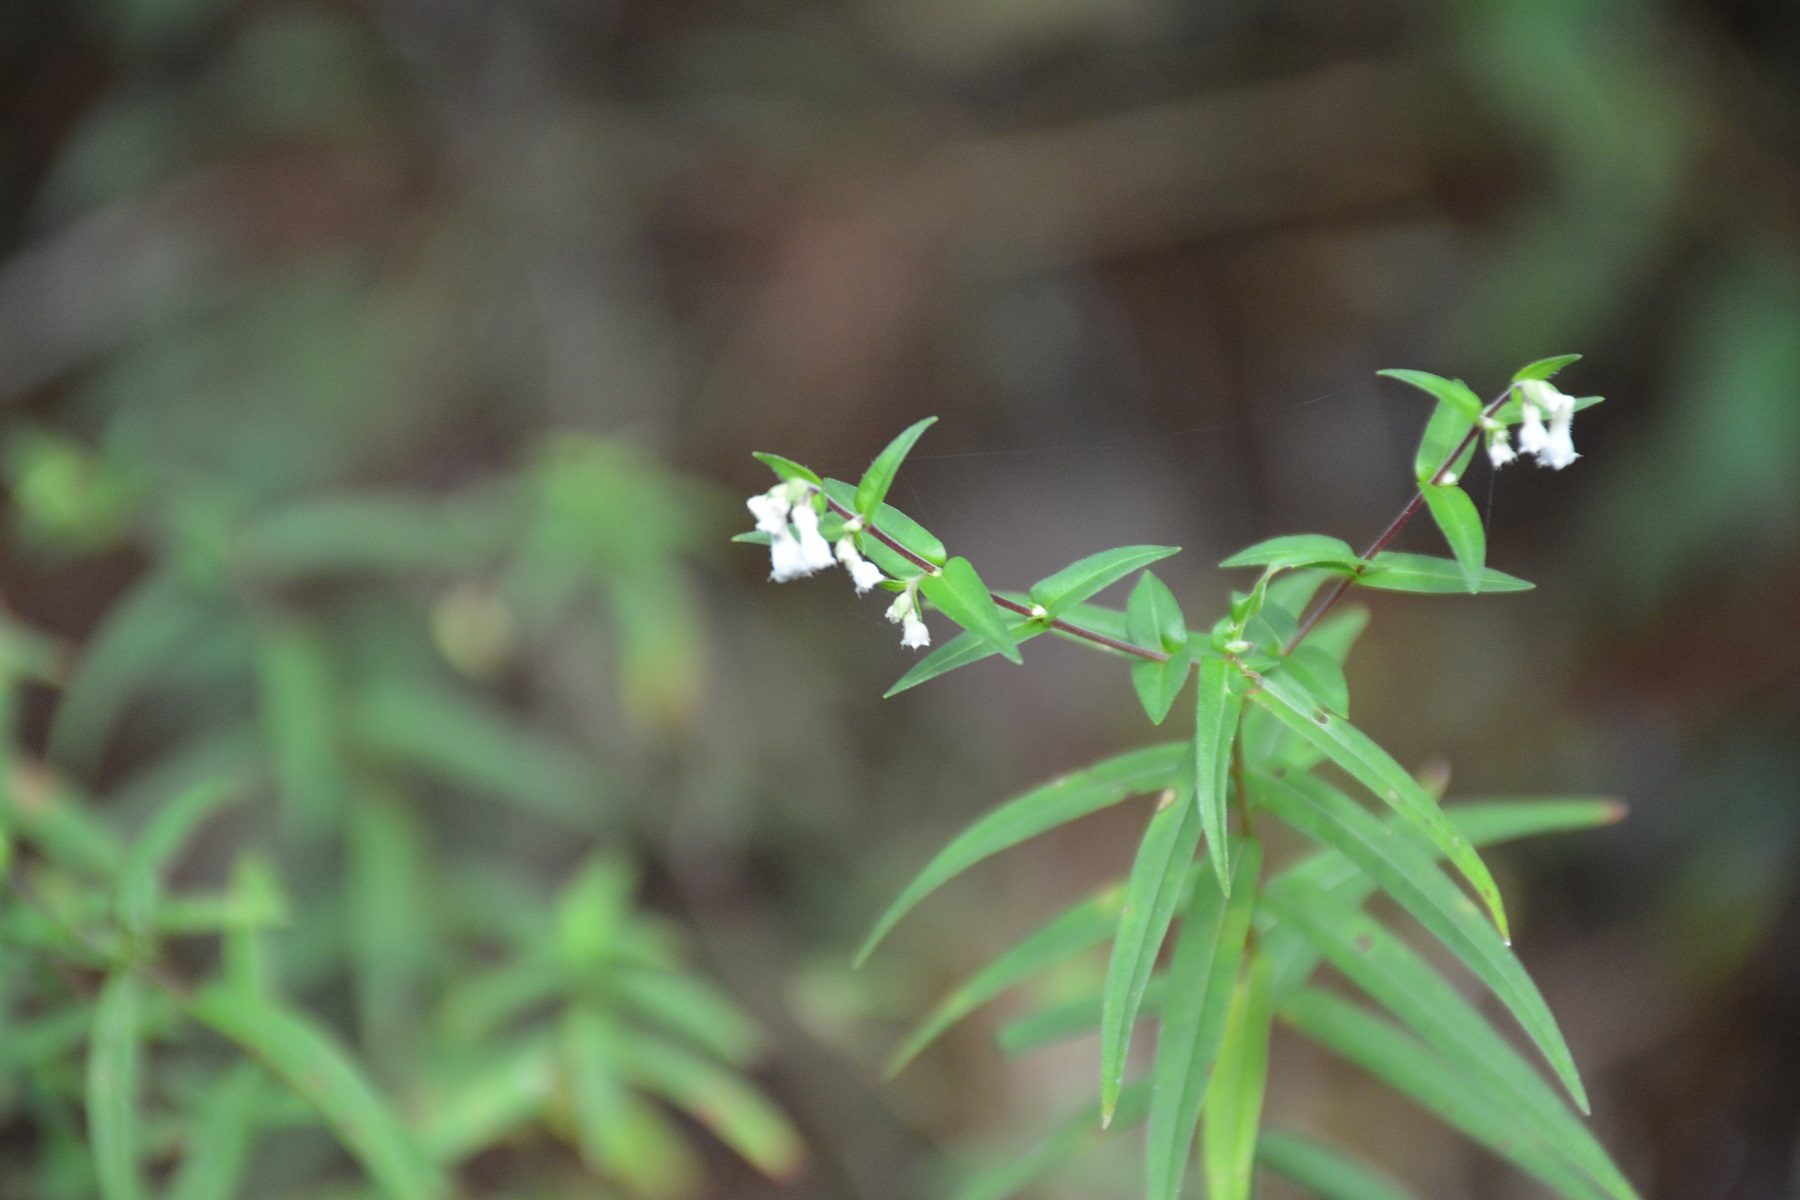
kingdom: Plantae
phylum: Tracheophyta
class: Magnoliopsida
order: Myrtales
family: Lythraceae
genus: Cuphea
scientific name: Cuphea avigera
